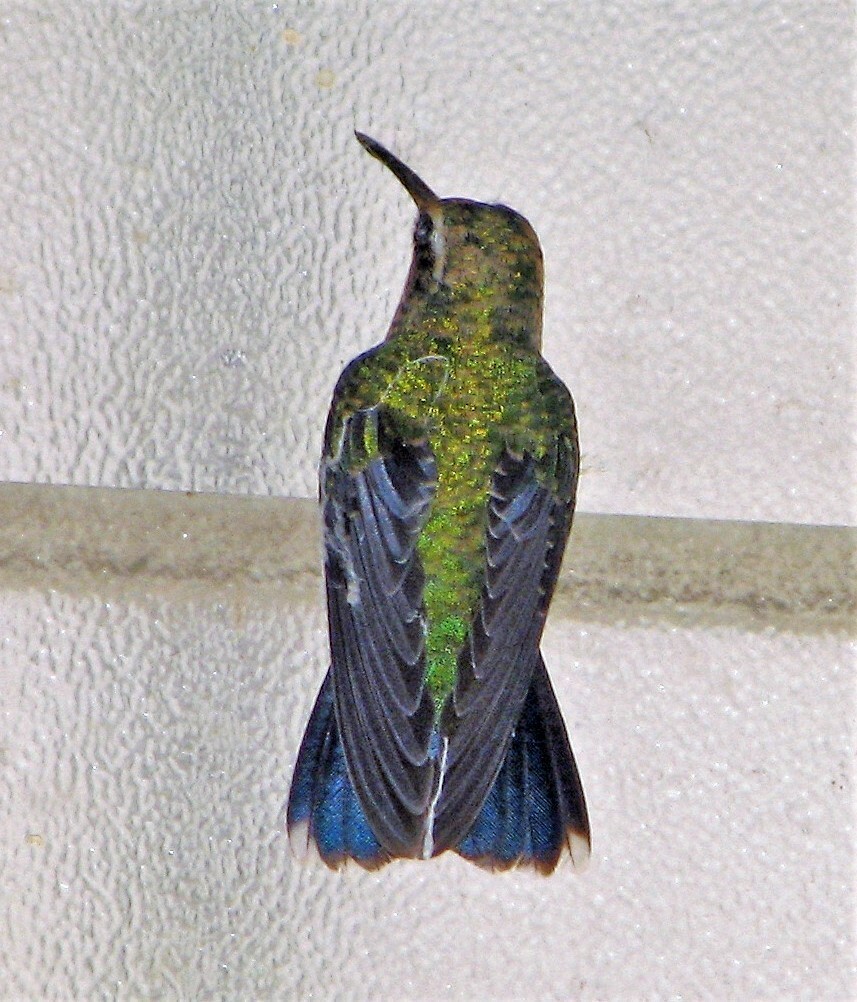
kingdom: Animalia
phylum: Chordata
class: Aves
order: Apodiformes
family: Trochilidae
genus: Chlorostilbon
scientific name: Chlorostilbon lucidus
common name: Glittering-bellied emerald
